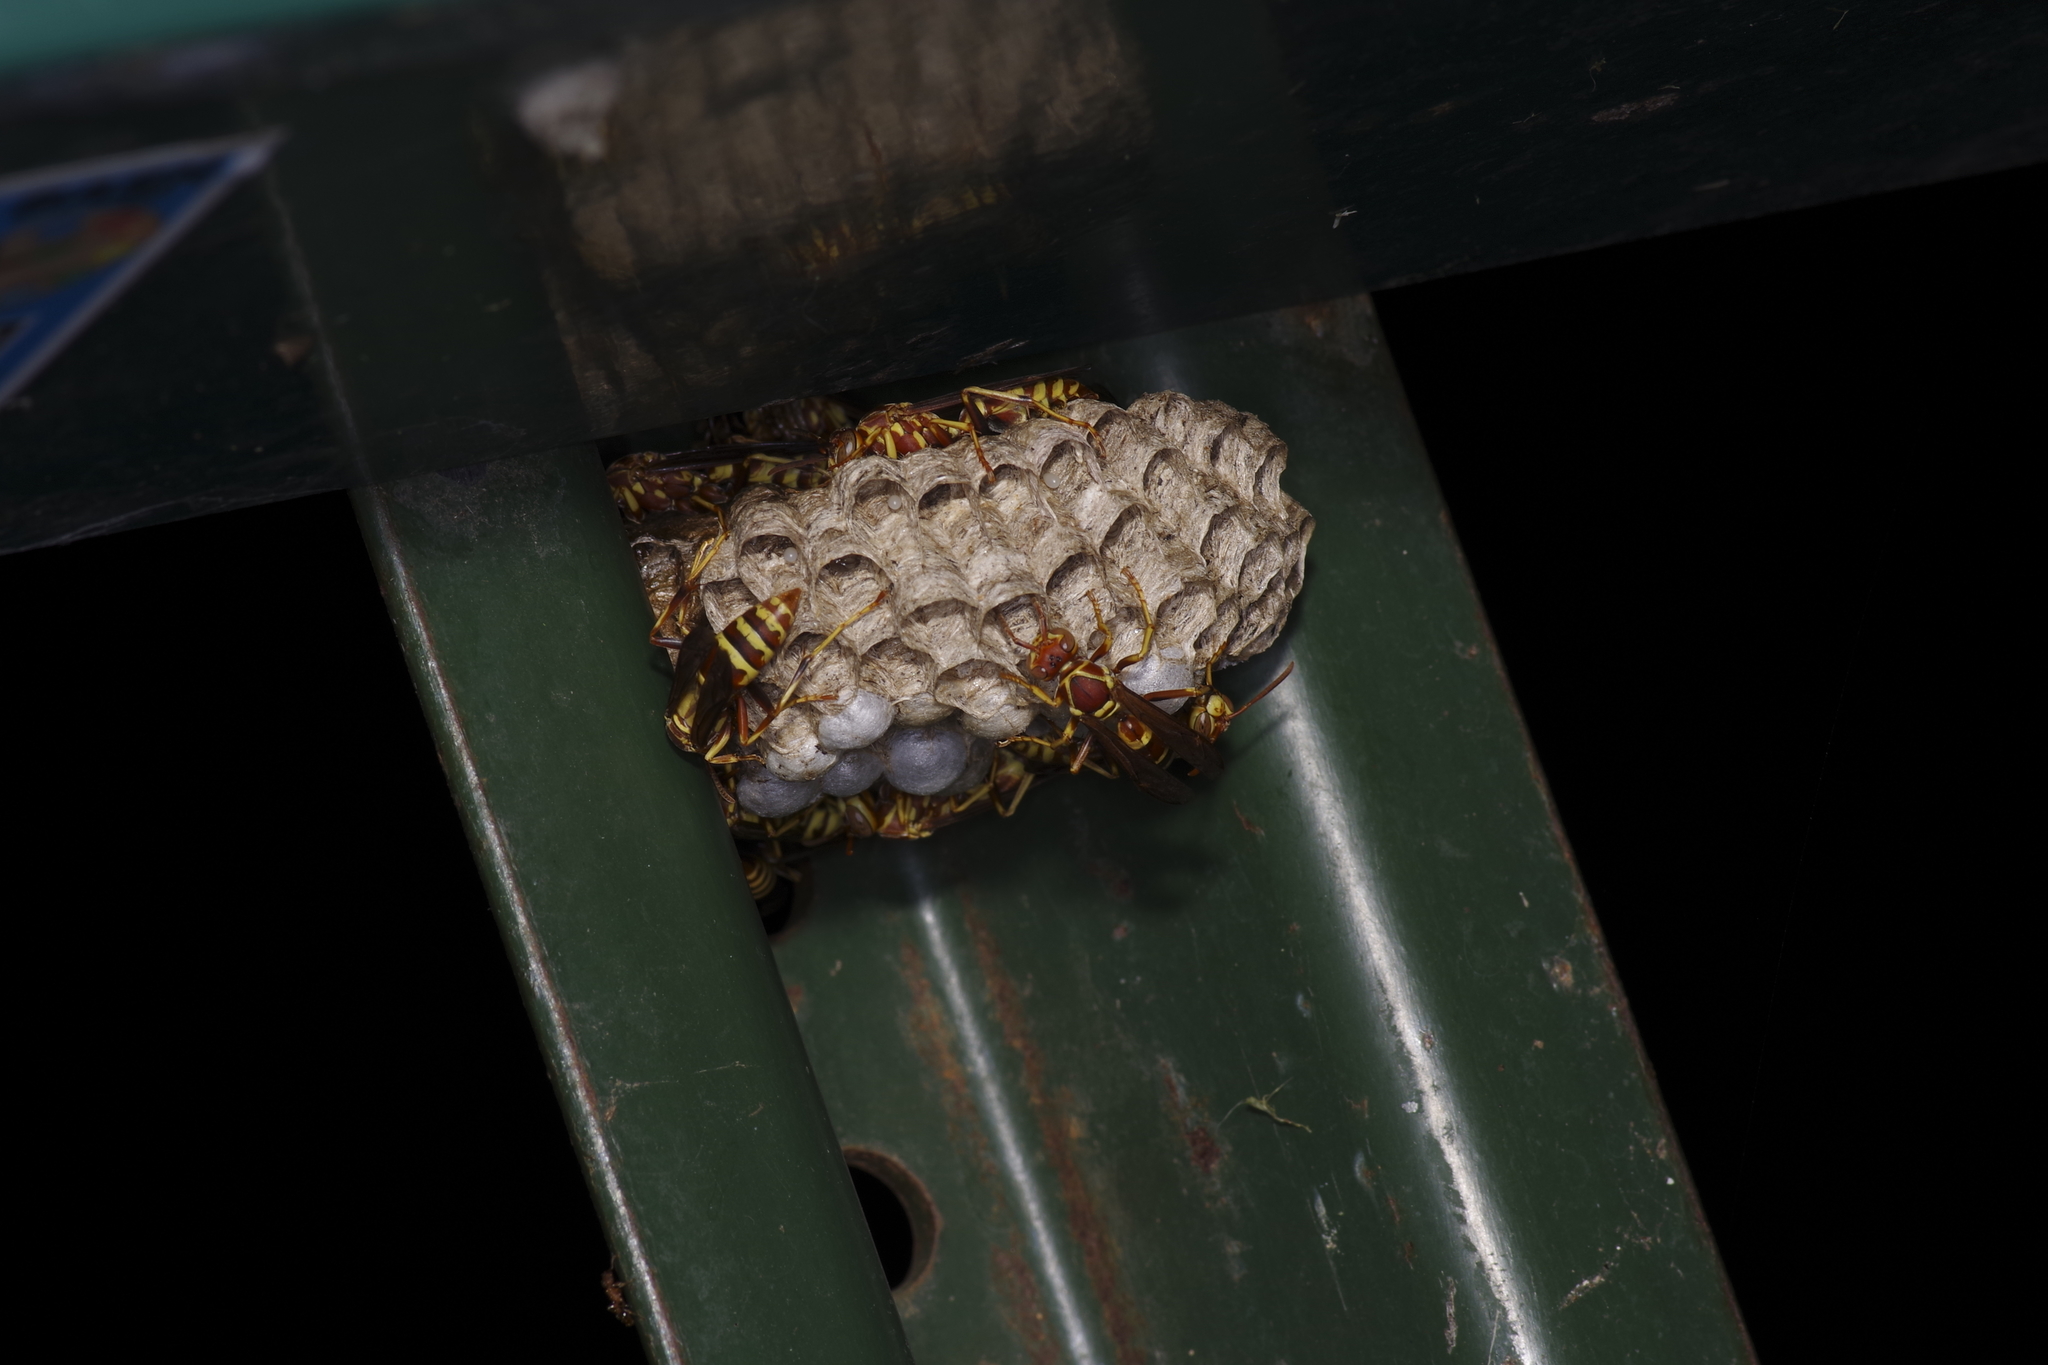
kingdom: Animalia
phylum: Arthropoda
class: Insecta
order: Hymenoptera
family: Eumenidae
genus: Polistes
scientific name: Polistes exclamans
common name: Paper wasp
